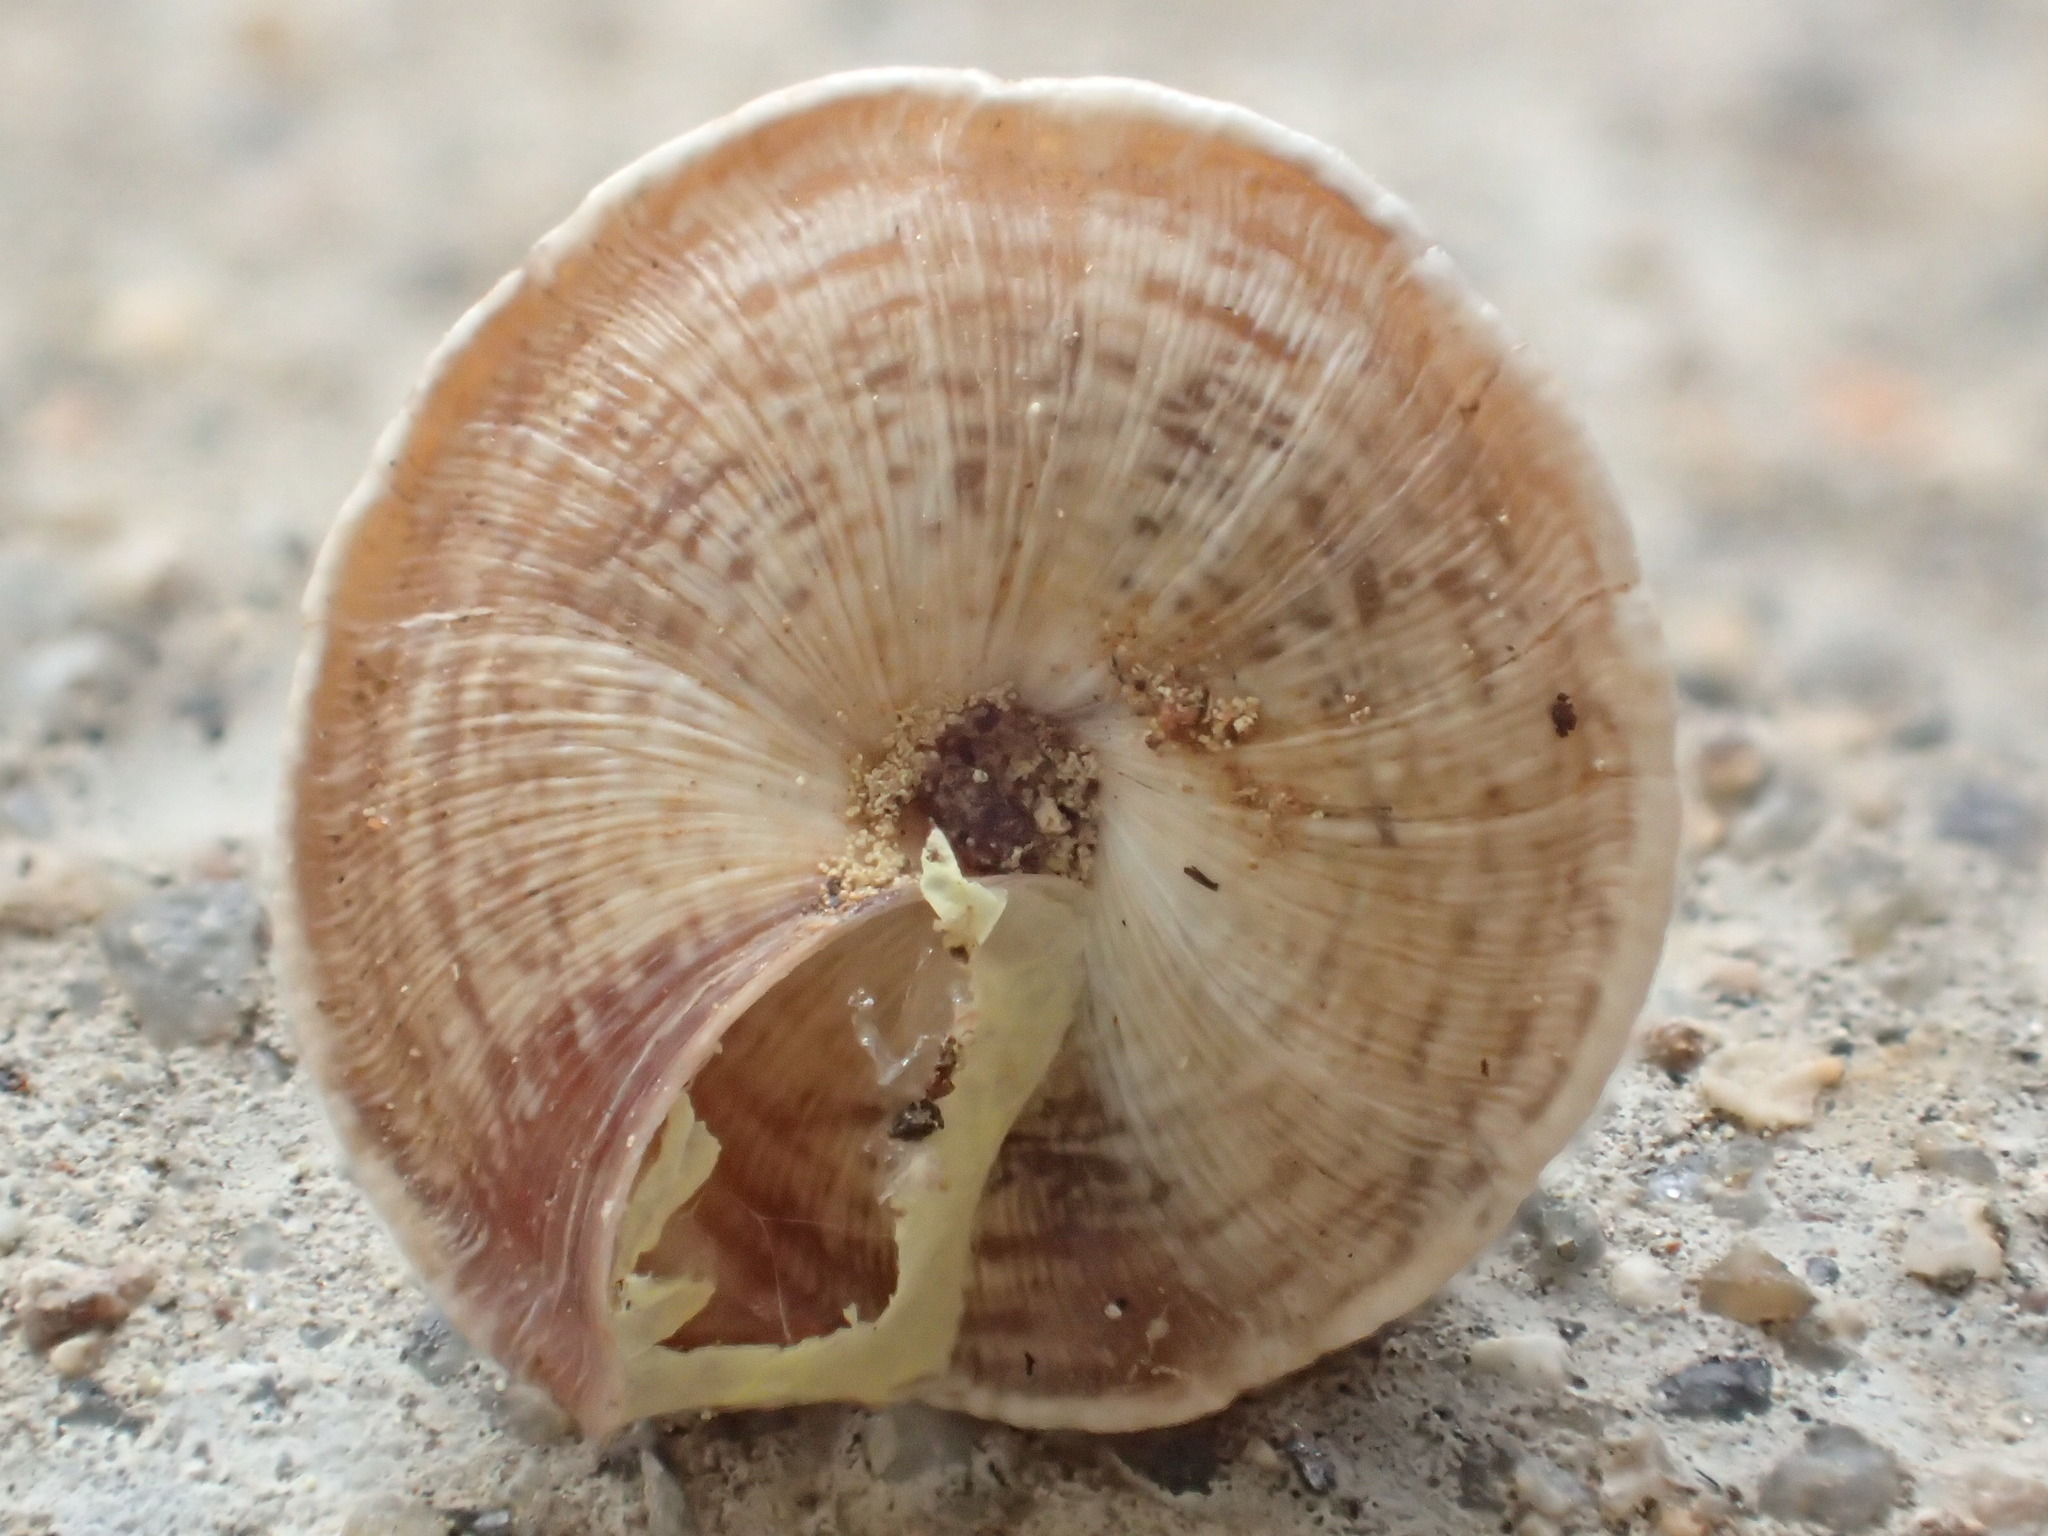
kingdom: Animalia
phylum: Mollusca
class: Gastropoda
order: Stylommatophora
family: Geomitridae
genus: Trochoidea
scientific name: Trochoidea elegans
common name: Elegant helicellid
